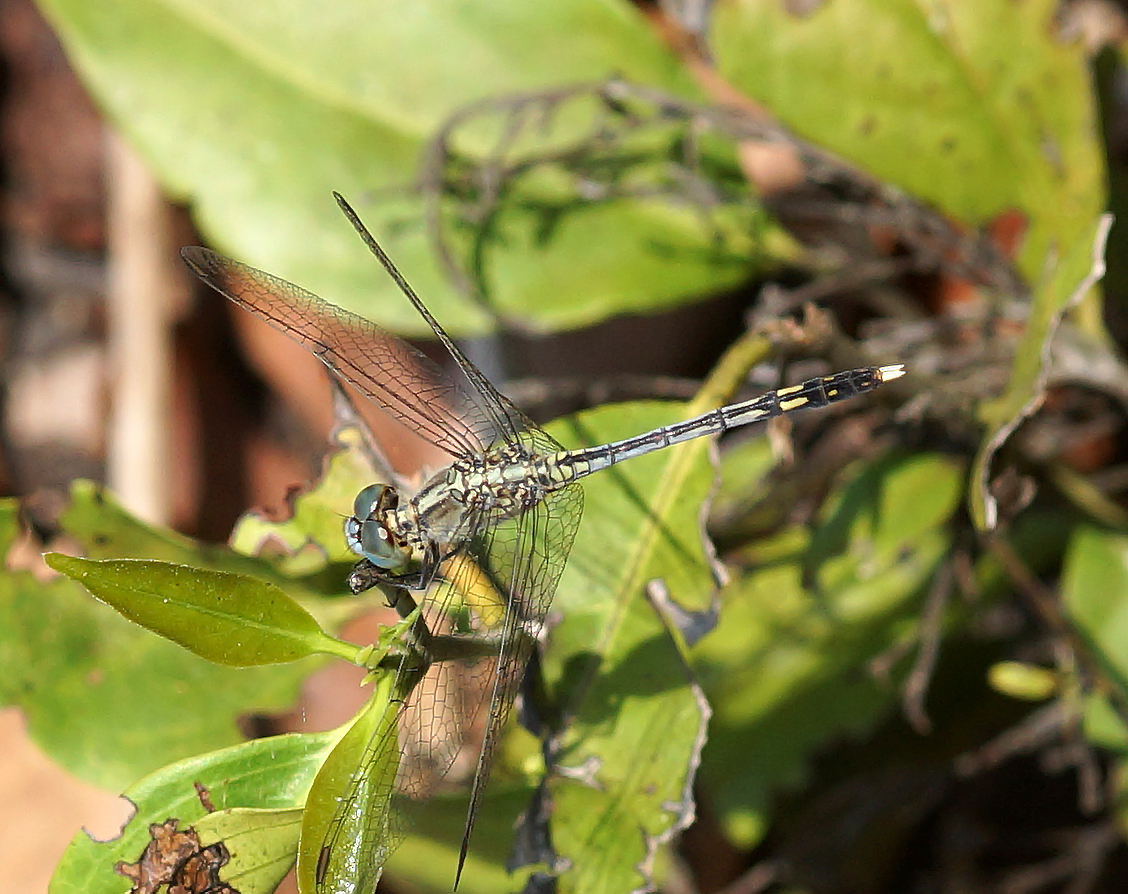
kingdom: Animalia
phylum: Arthropoda
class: Insecta
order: Odonata
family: Libellulidae
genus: Diplacodes
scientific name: Diplacodes trivialis
